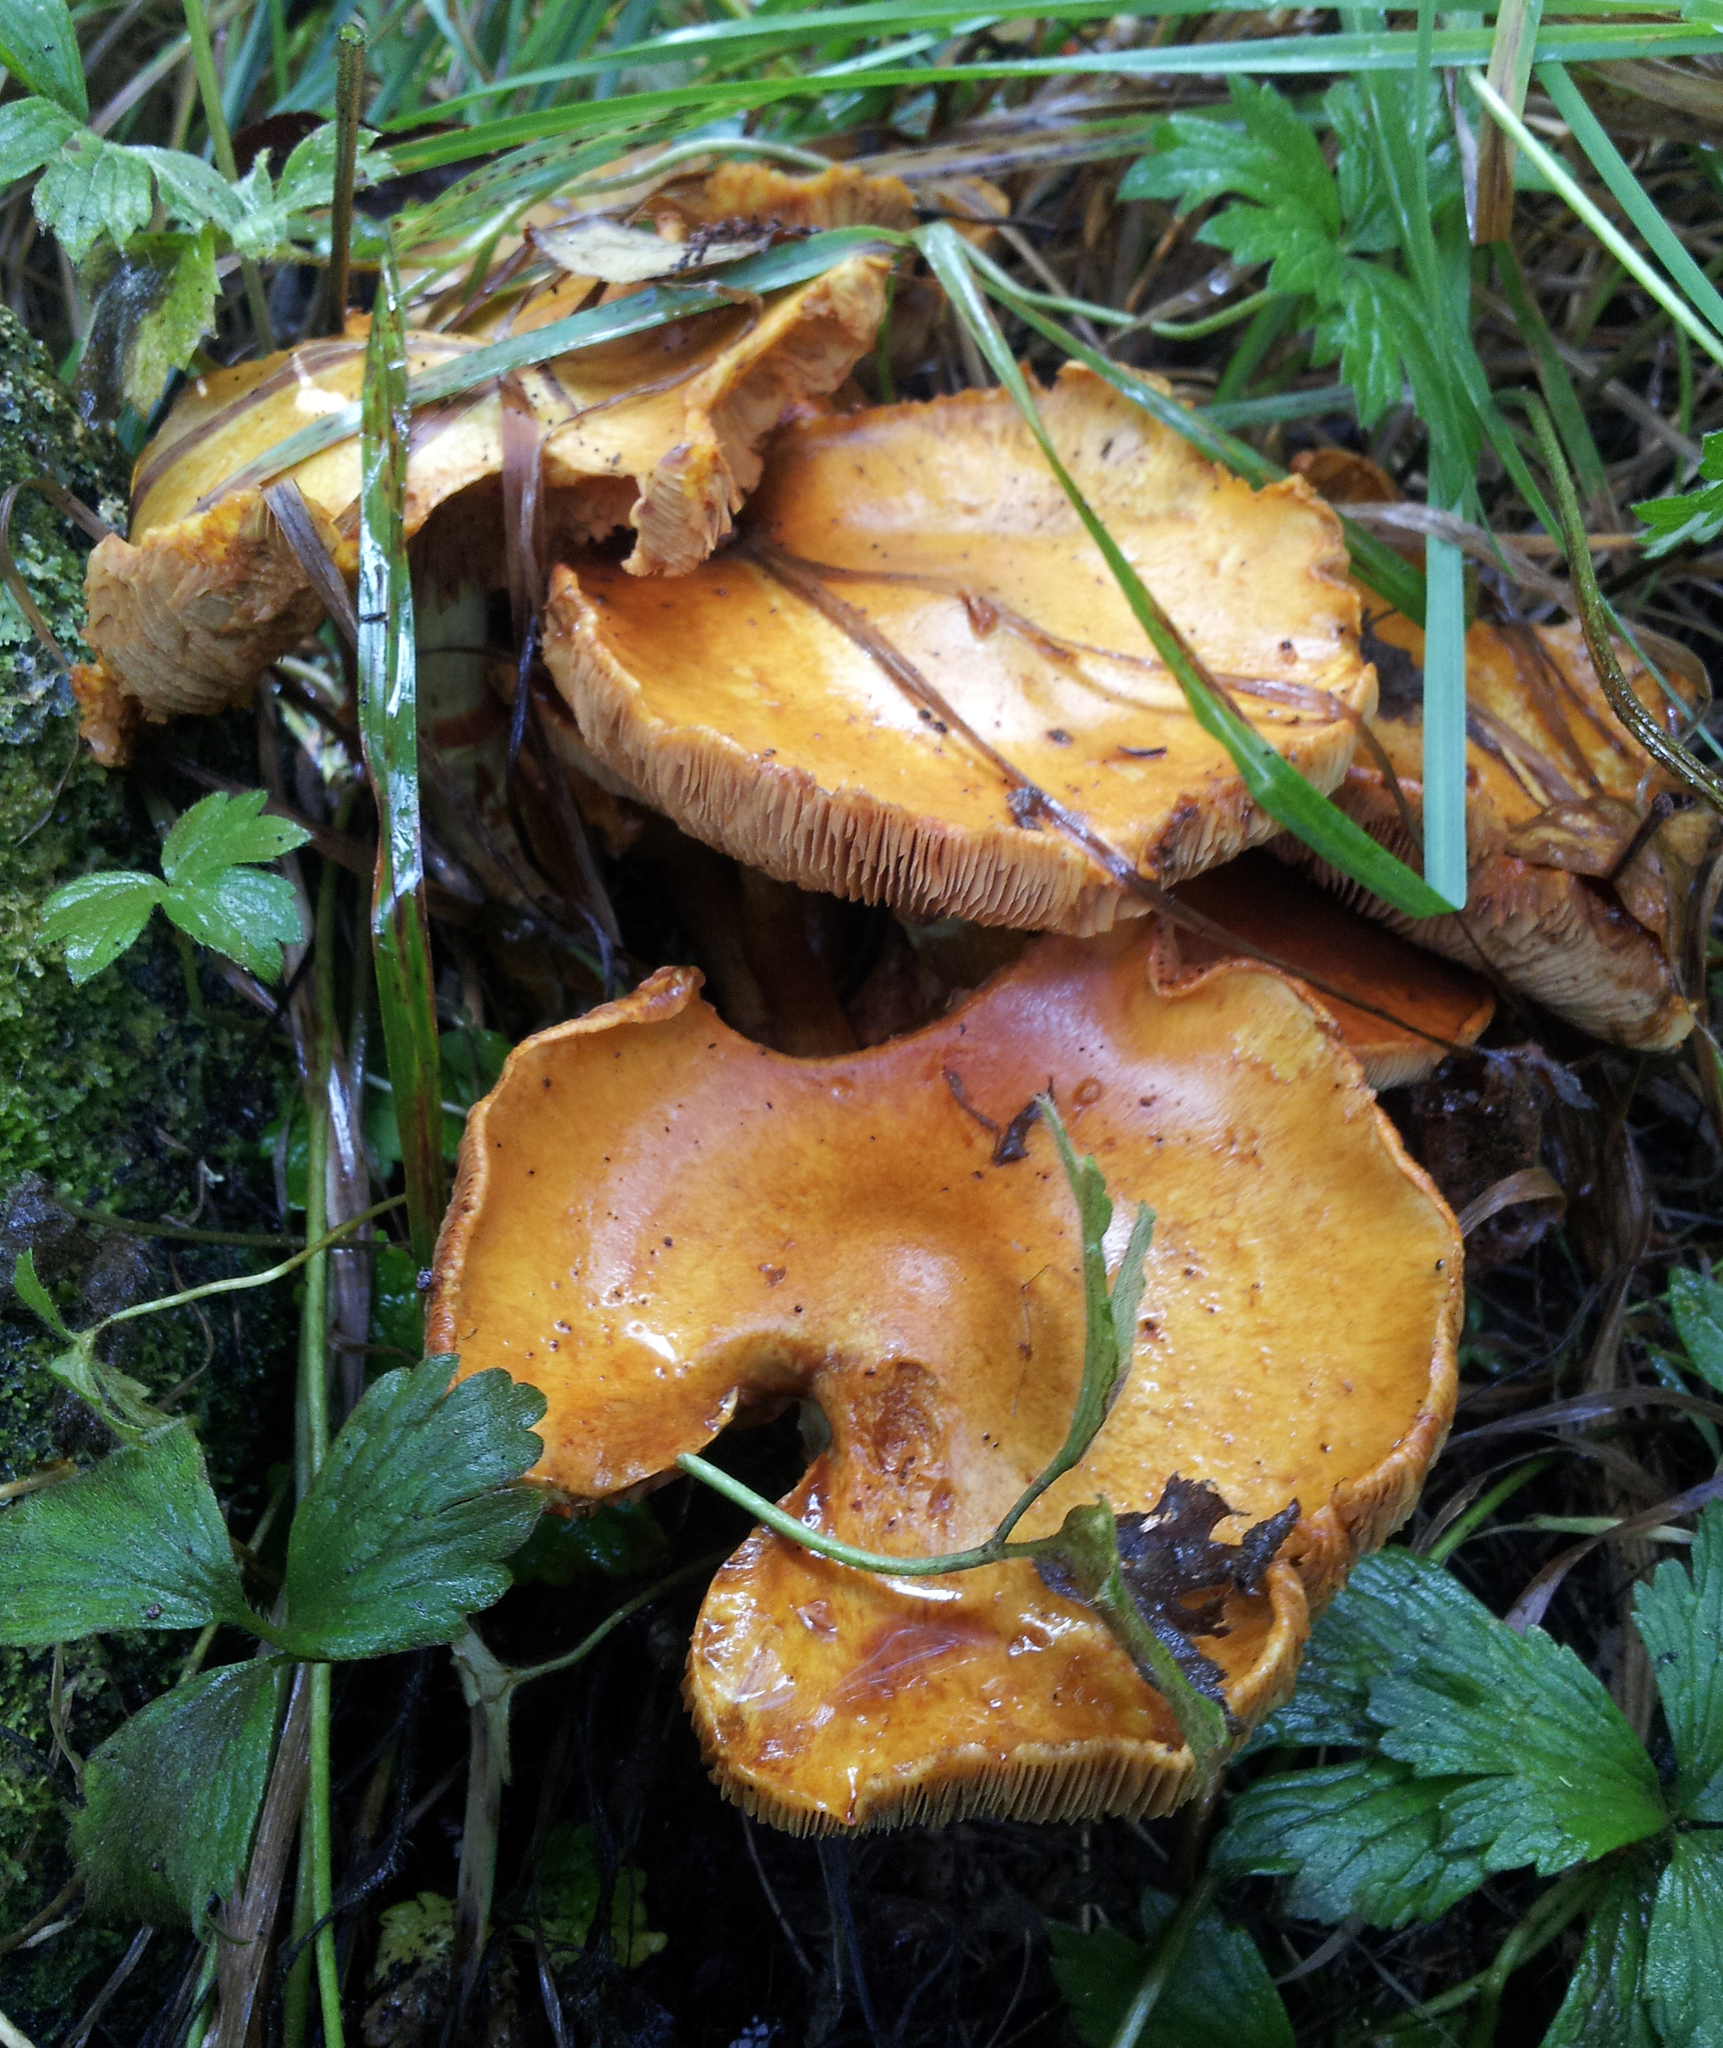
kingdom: Fungi
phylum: Basidiomycota
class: Agaricomycetes
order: Agaricales
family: Hymenogastraceae
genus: Gymnopilus
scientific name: Gymnopilus junonius
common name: Spectacular rustgill
